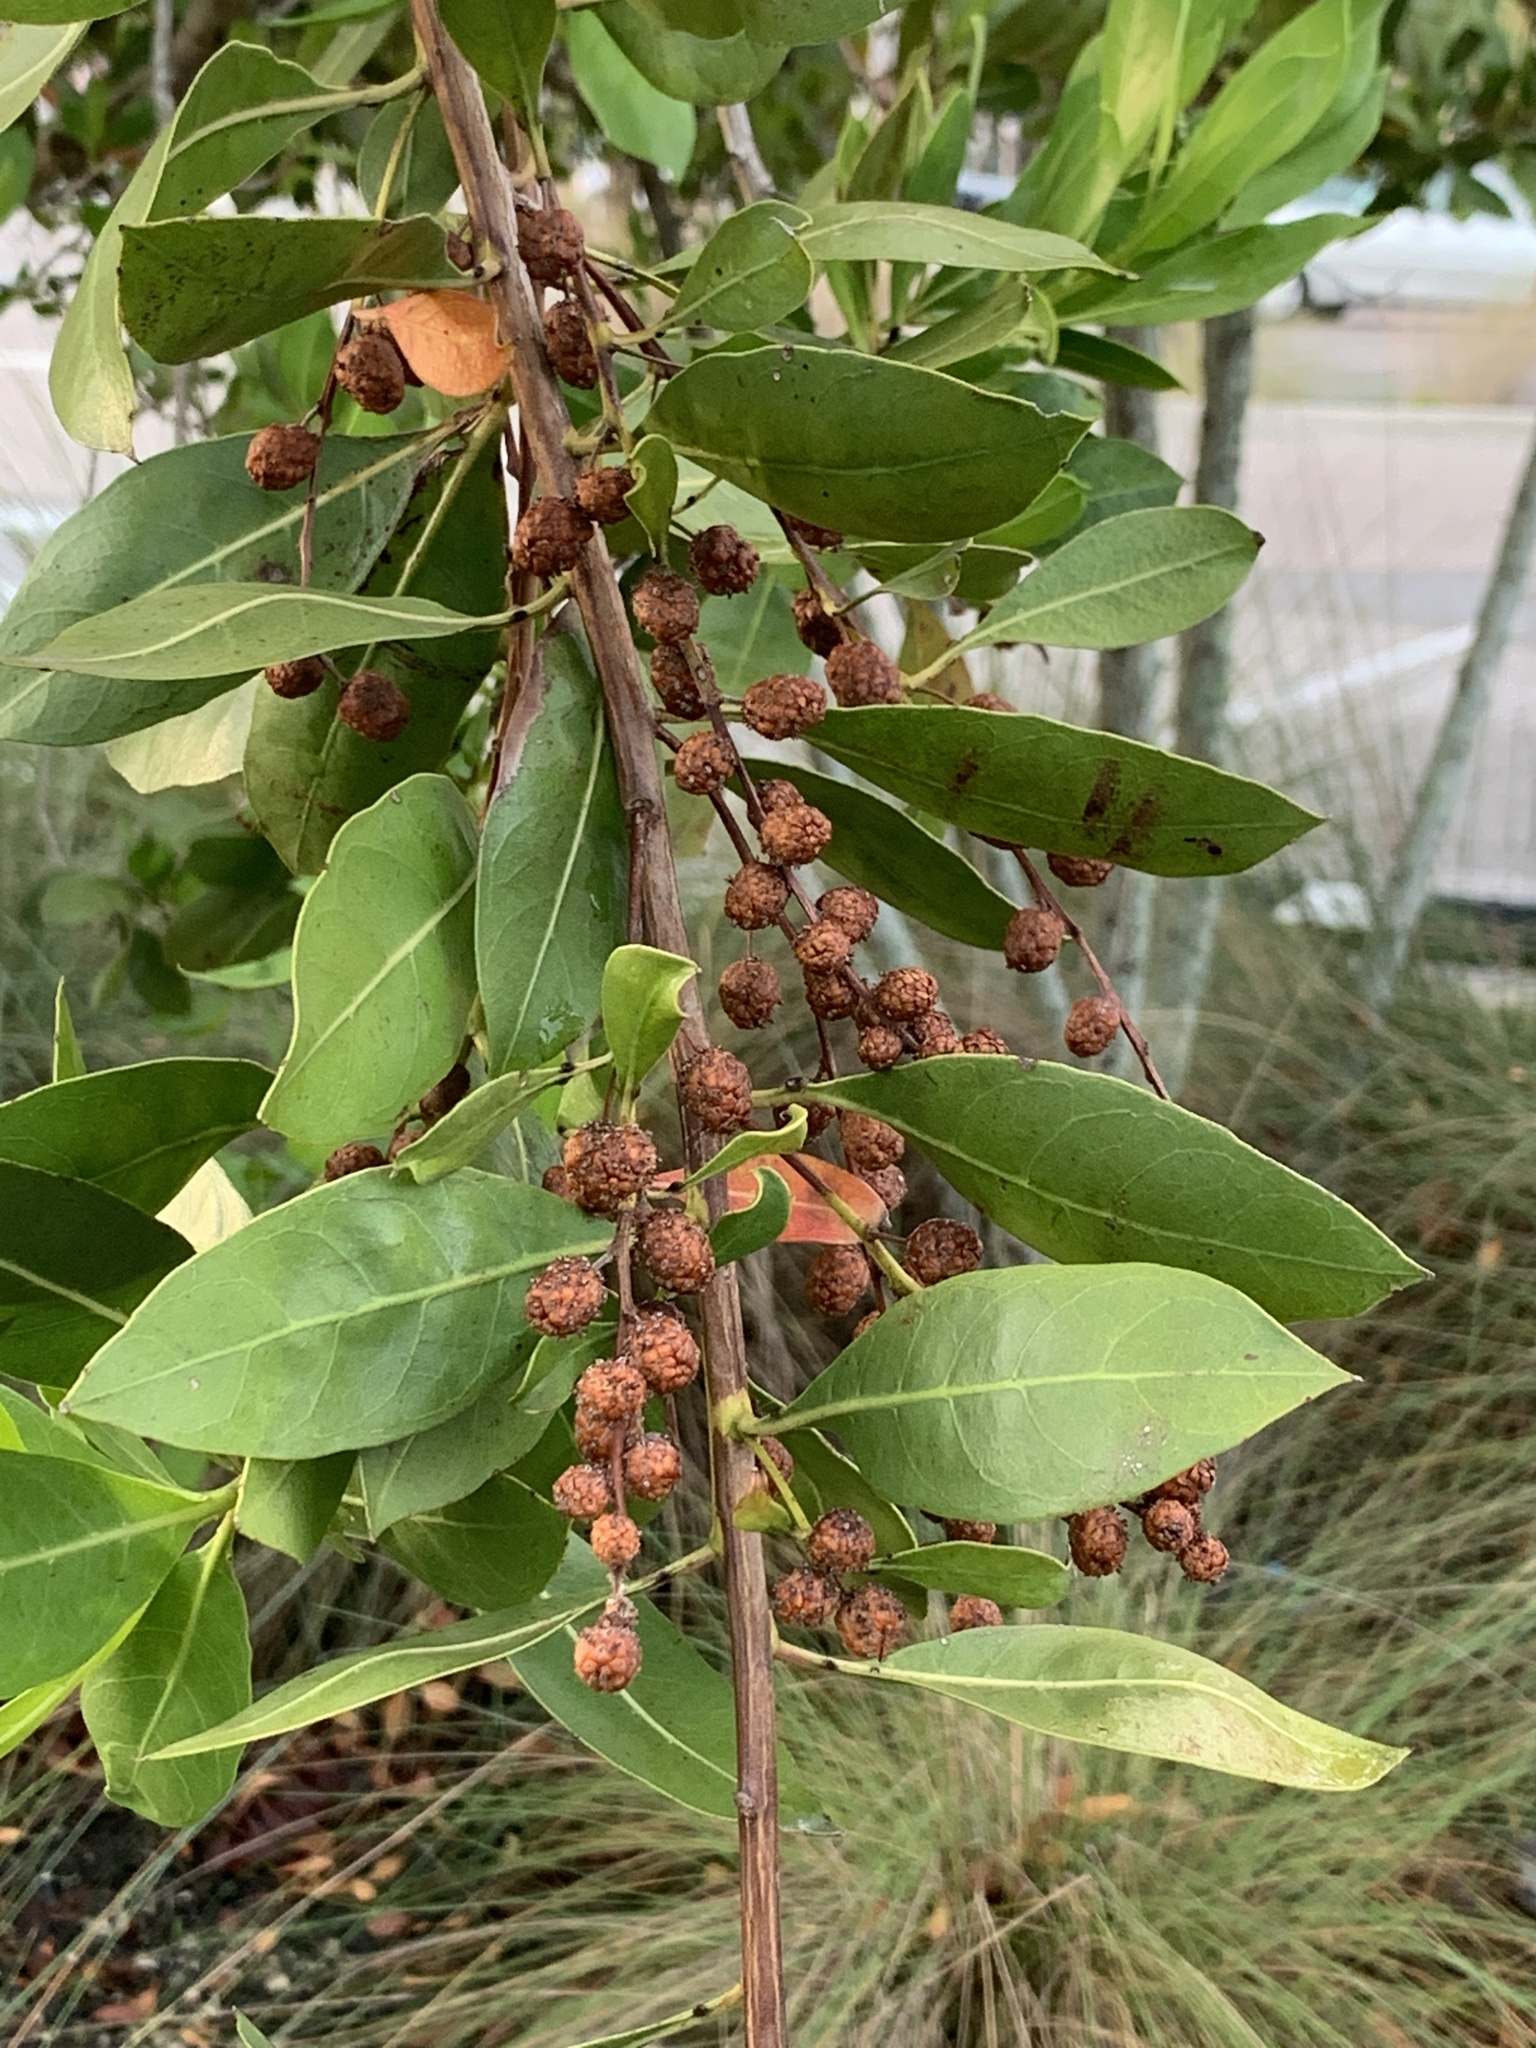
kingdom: Plantae
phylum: Tracheophyta
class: Magnoliopsida
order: Myrtales
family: Combretaceae
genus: Conocarpus
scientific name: Conocarpus erectus
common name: Button mangrove
